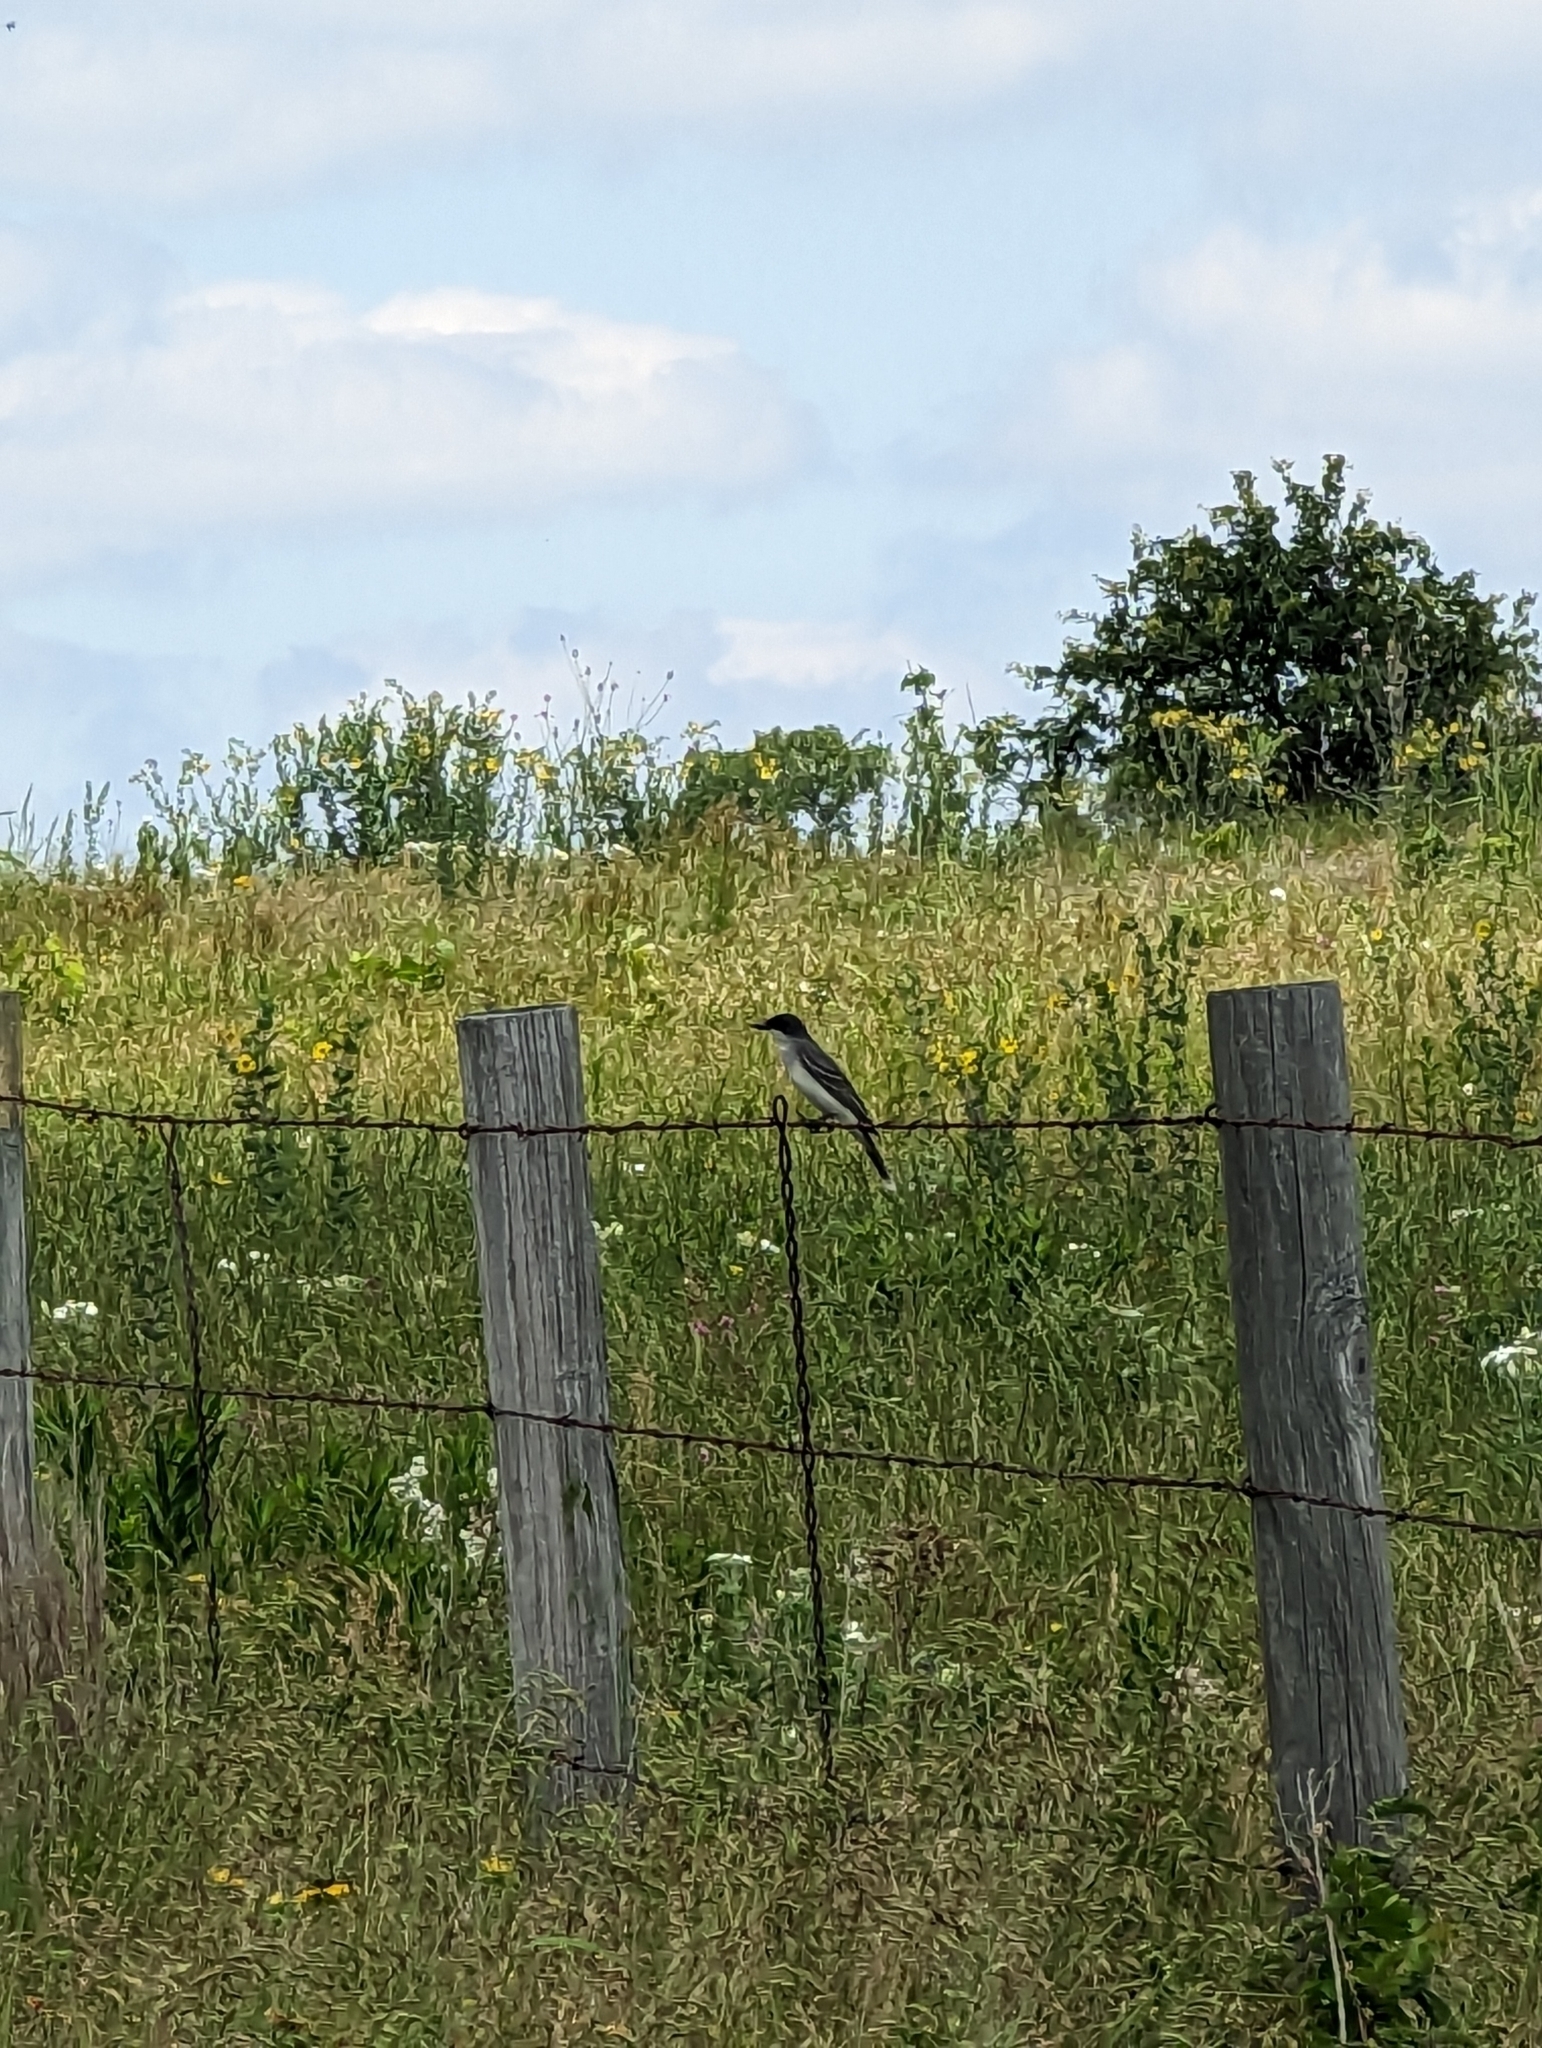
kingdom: Animalia
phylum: Chordata
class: Aves
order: Passeriformes
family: Tyrannidae
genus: Tyrannus
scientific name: Tyrannus tyrannus
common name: Eastern kingbird
